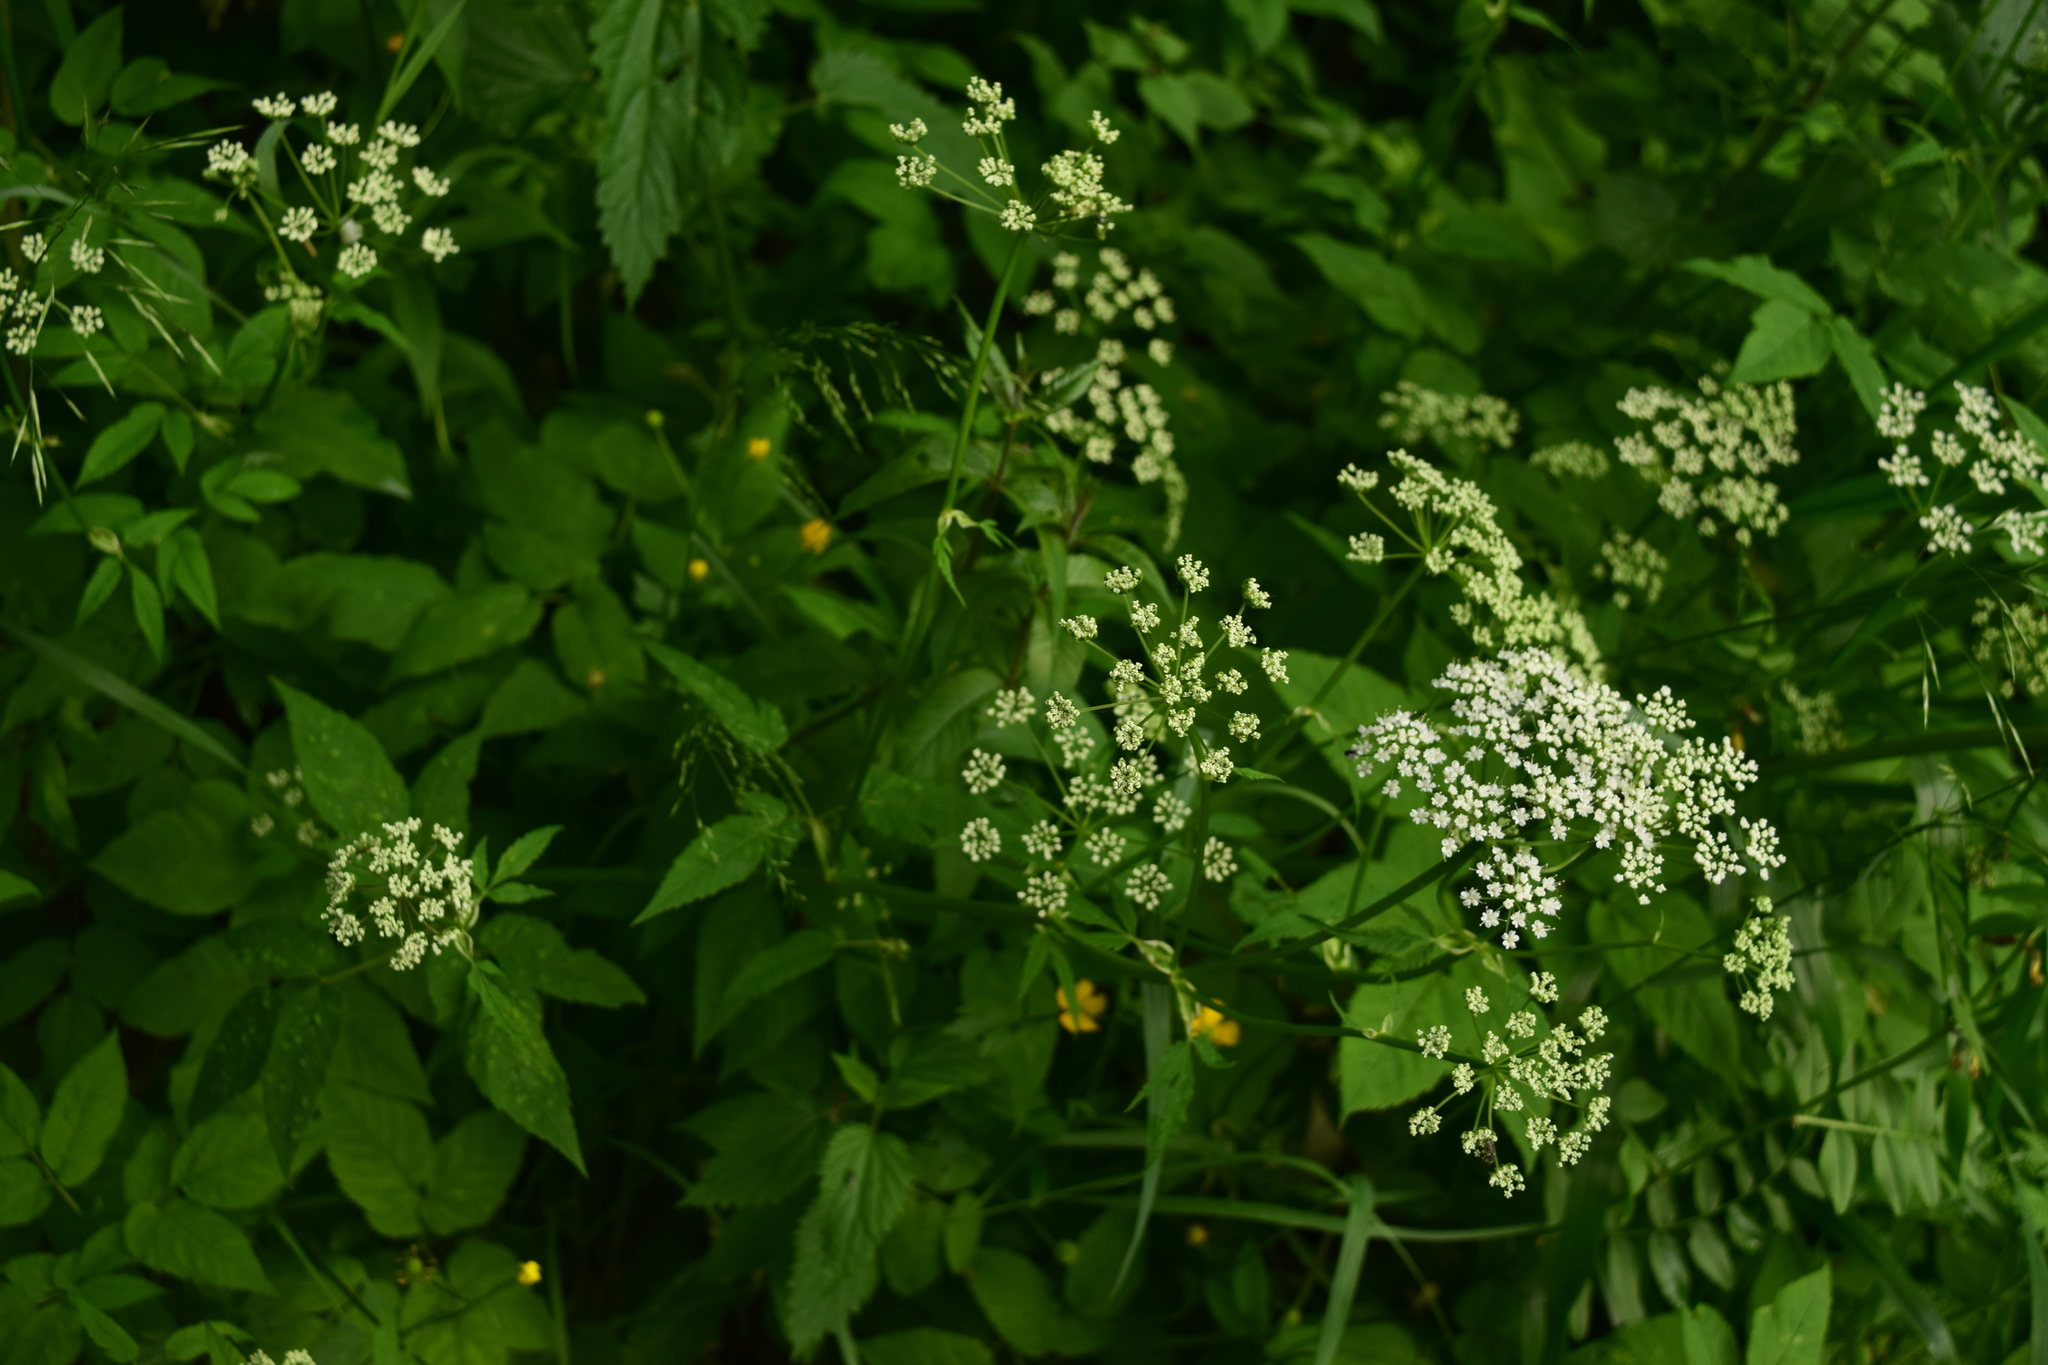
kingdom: Plantae
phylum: Tracheophyta
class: Magnoliopsida
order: Apiales
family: Apiaceae
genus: Aegopodium
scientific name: Aegopodium podagraria
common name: Ground-elder
